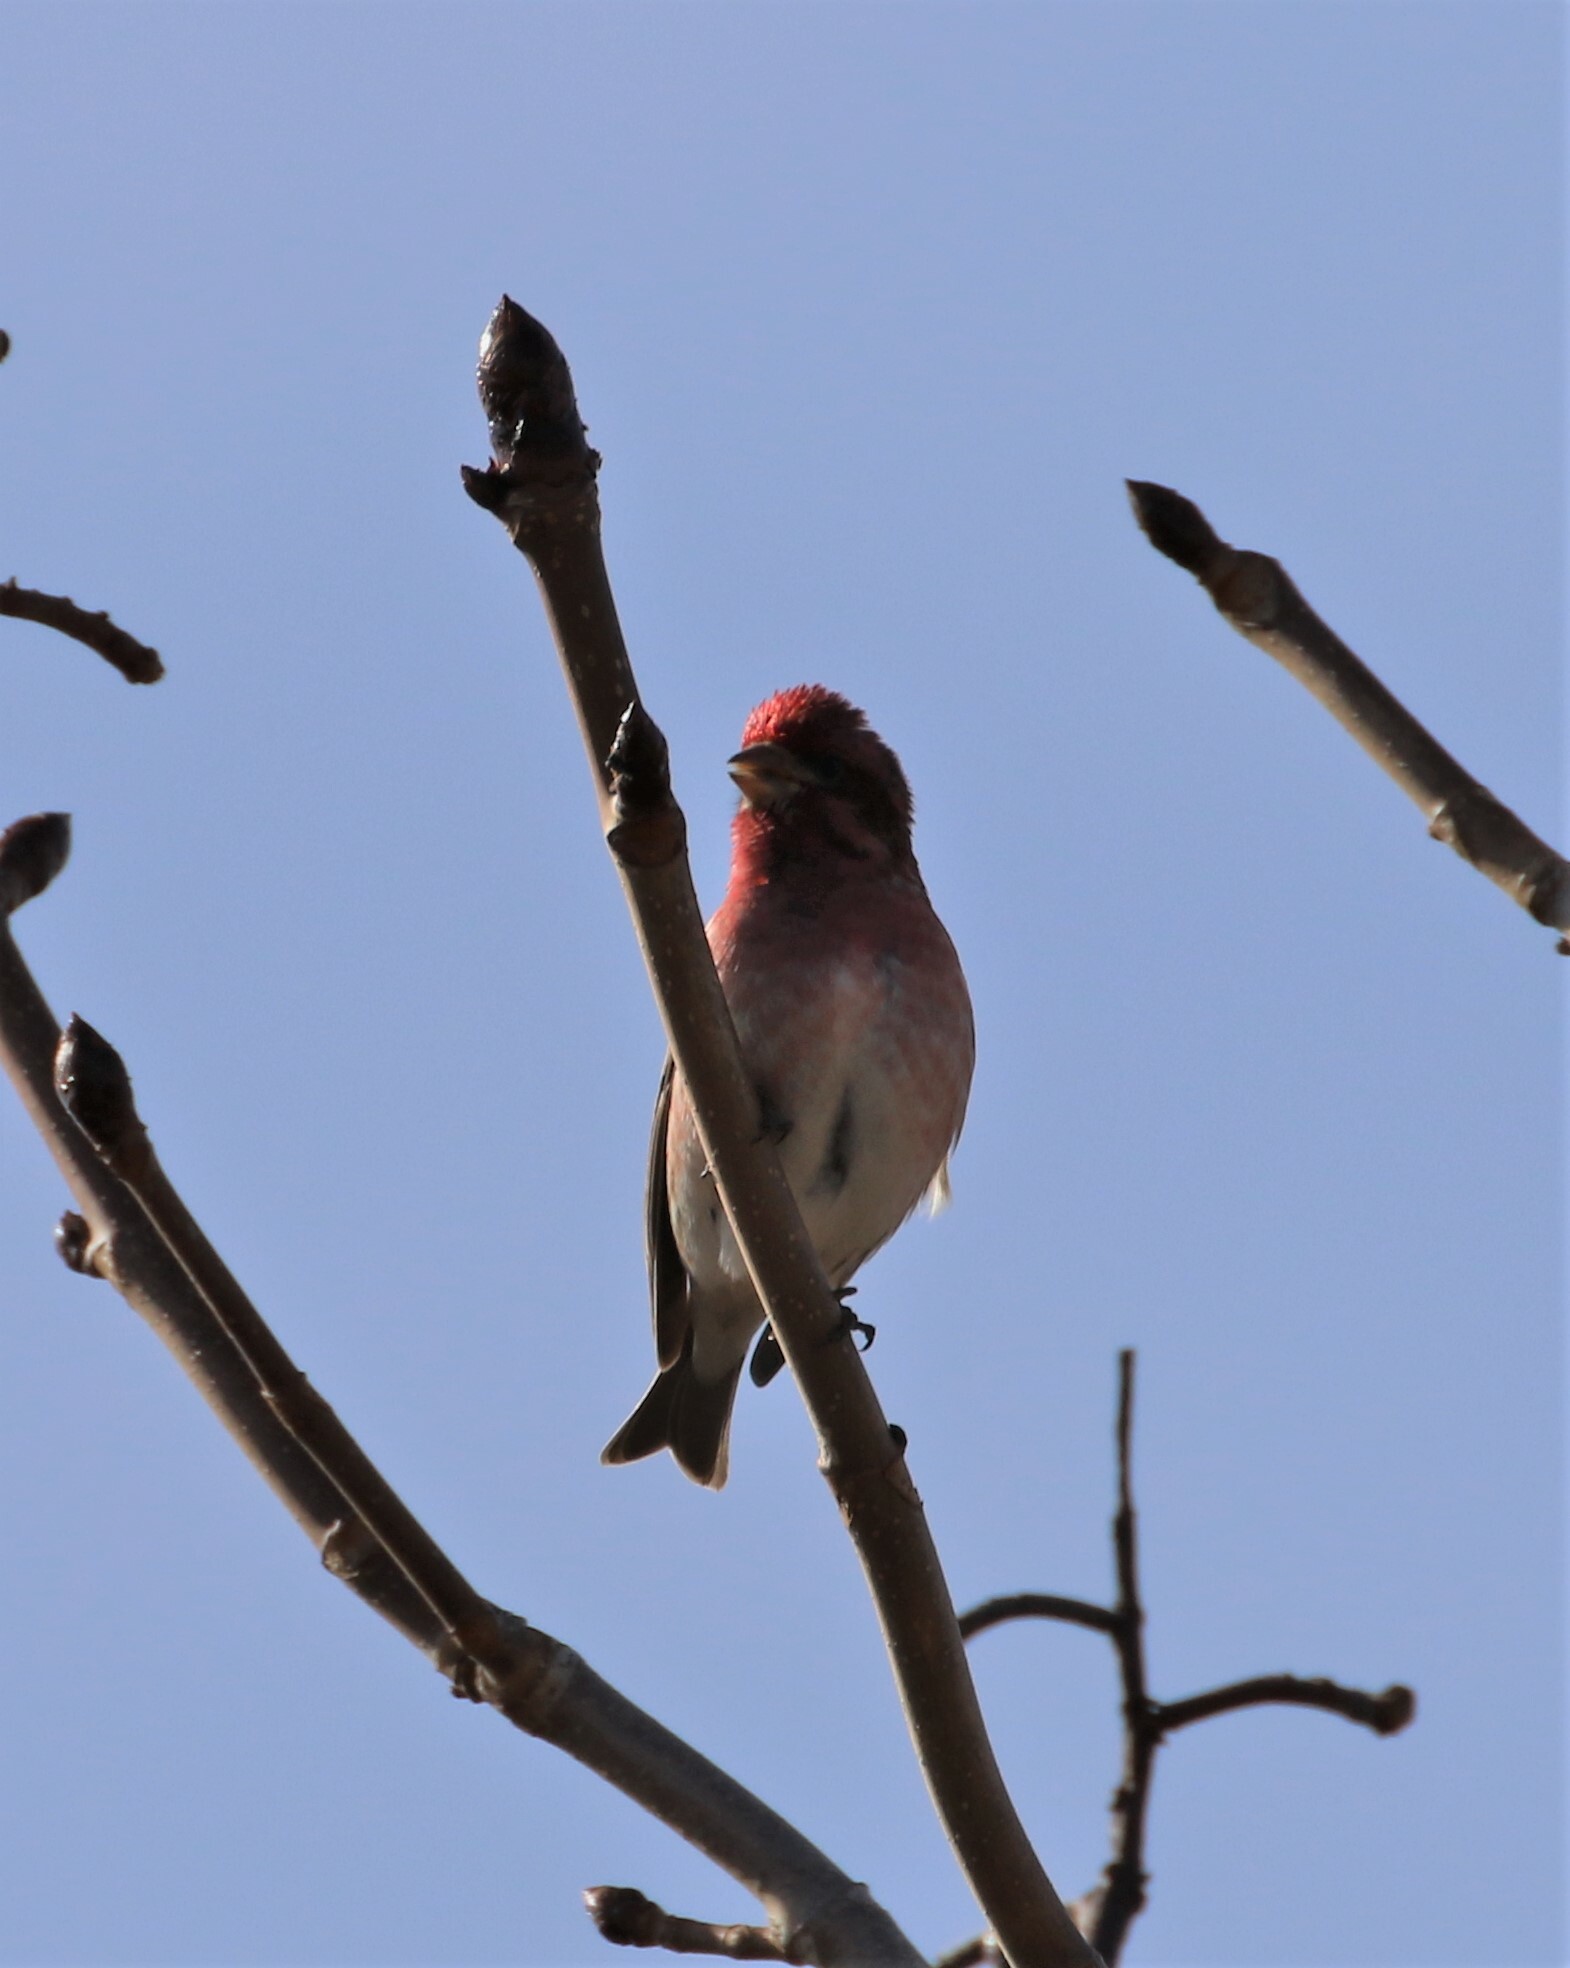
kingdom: Animalia
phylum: Chordata
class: Aves
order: Passeriformes
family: Fringillidae
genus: Haemorhous
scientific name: Haemorhous purpureus
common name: Purple finch
